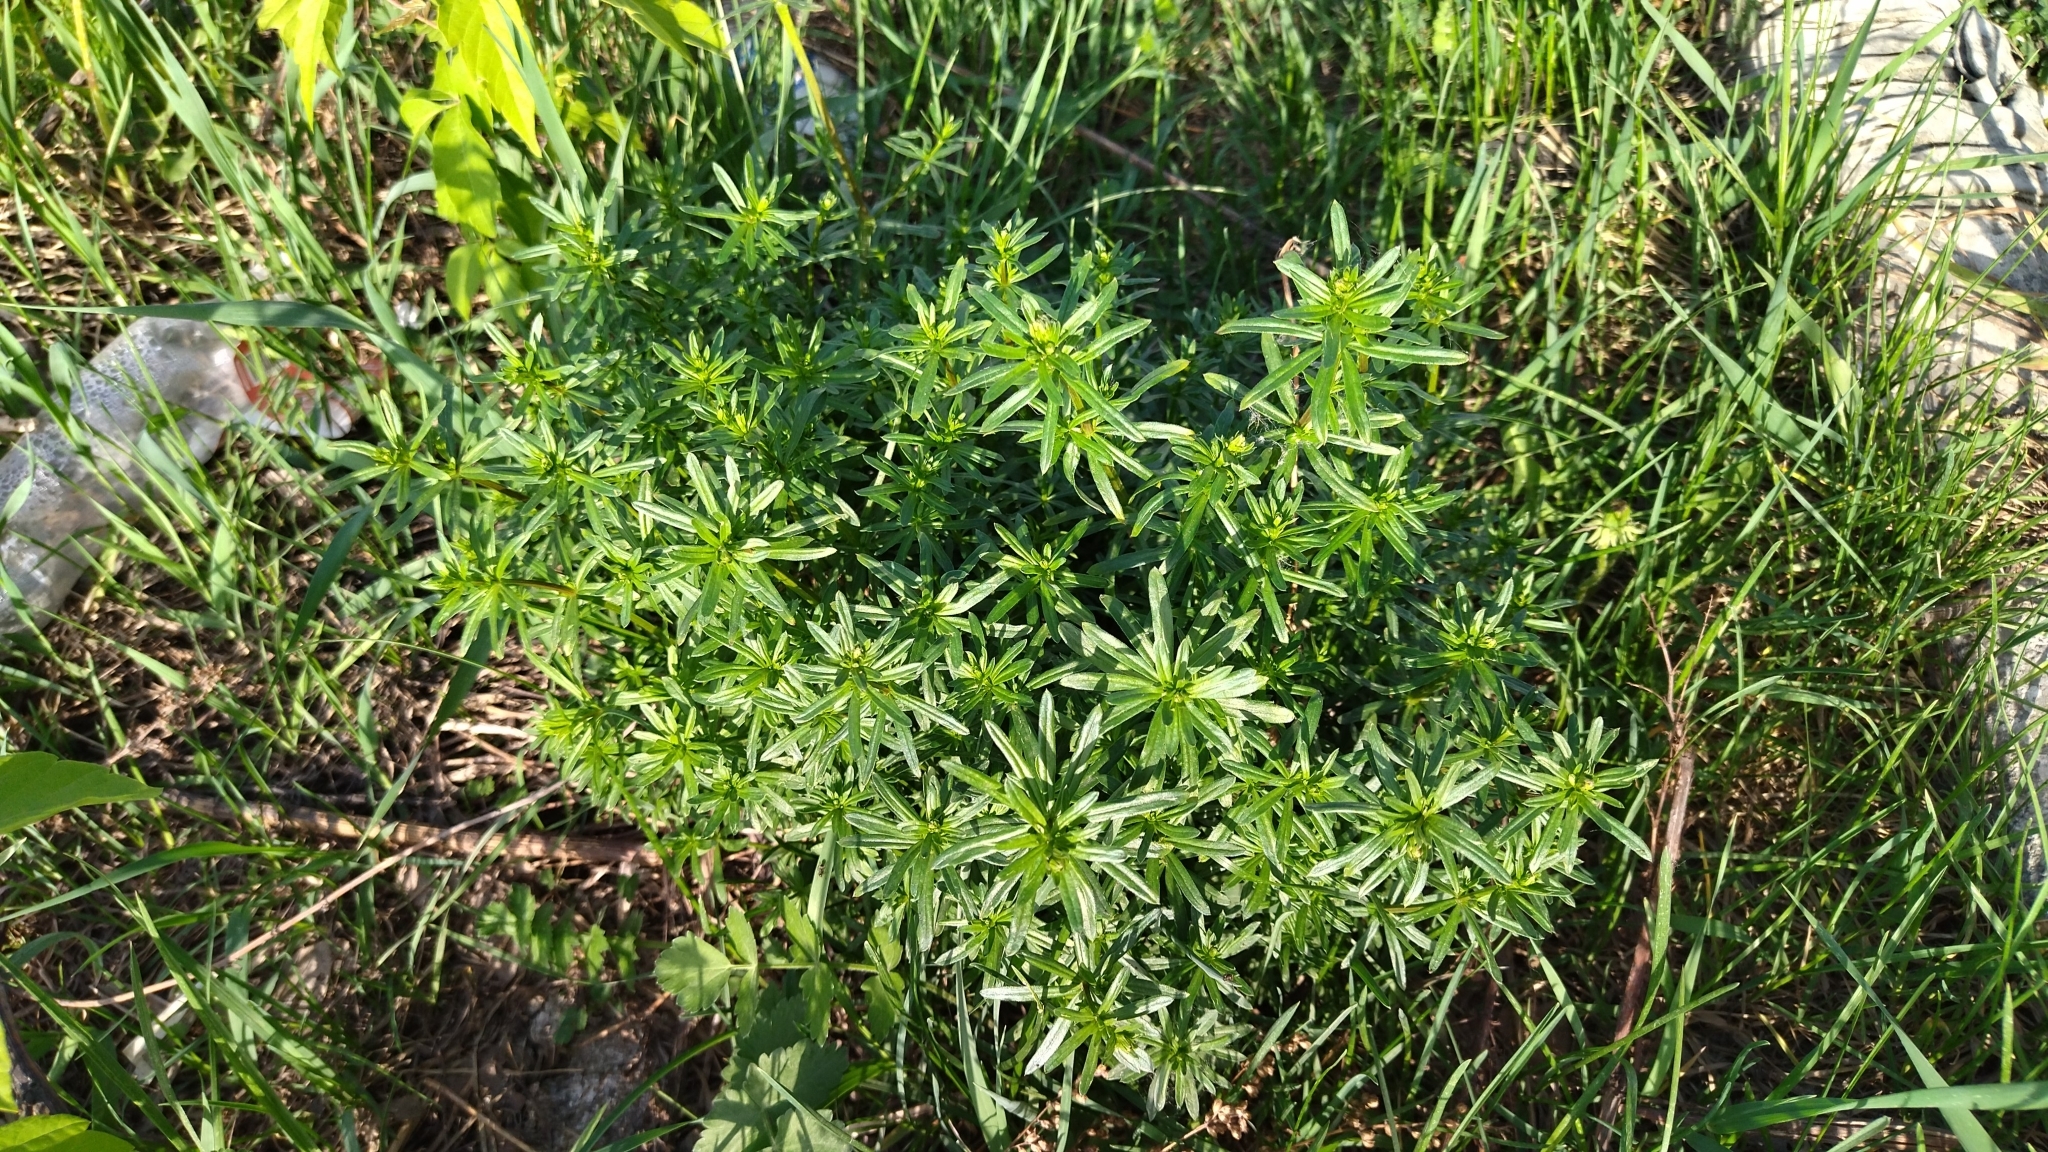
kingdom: Plantae
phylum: Tracheophyta
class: Magnoliopsida
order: Gentianales
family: Rubiaceae
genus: Galium
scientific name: Galium mollugo
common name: Hedge bedstraw
